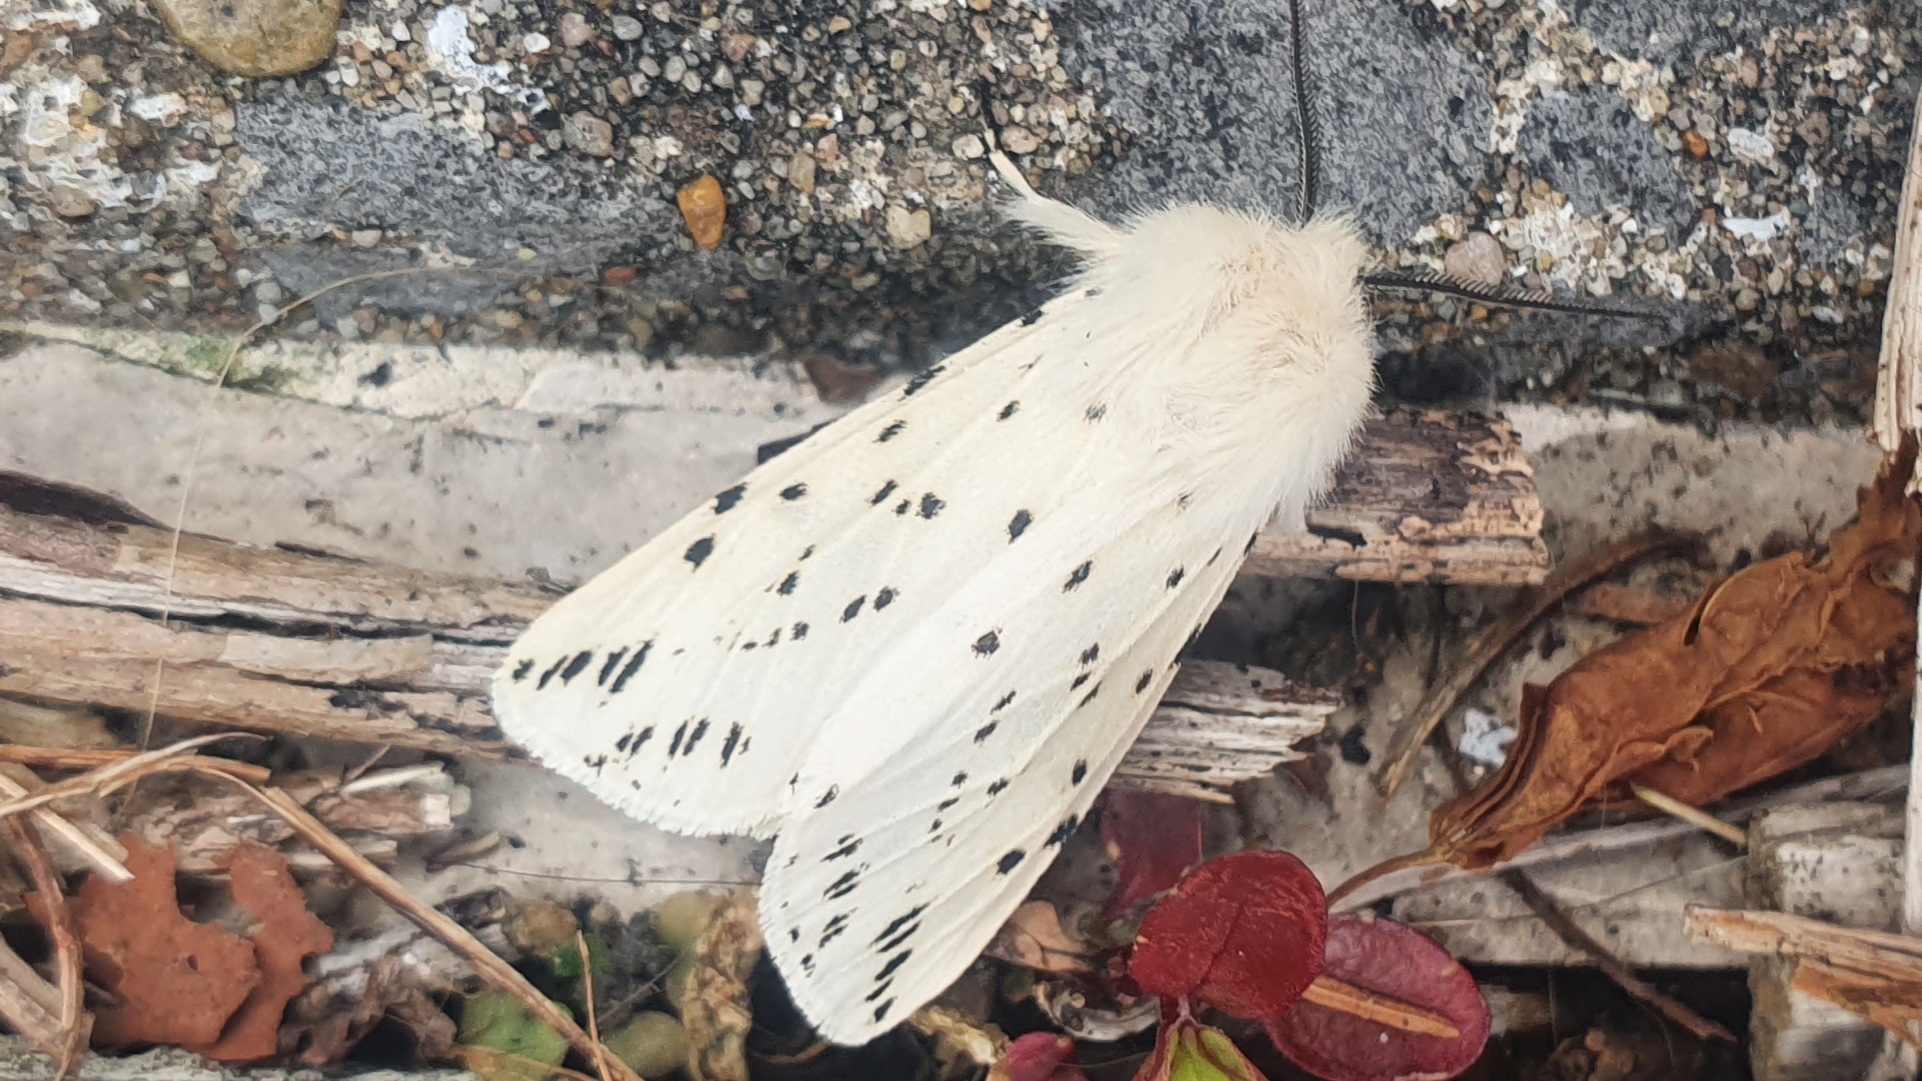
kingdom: Animalia
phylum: Arthropoda
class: Insecta
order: Lepidoptera
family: Erebidae
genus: Spilosoma
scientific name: Spilosoma lubricipeda
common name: White ermine
